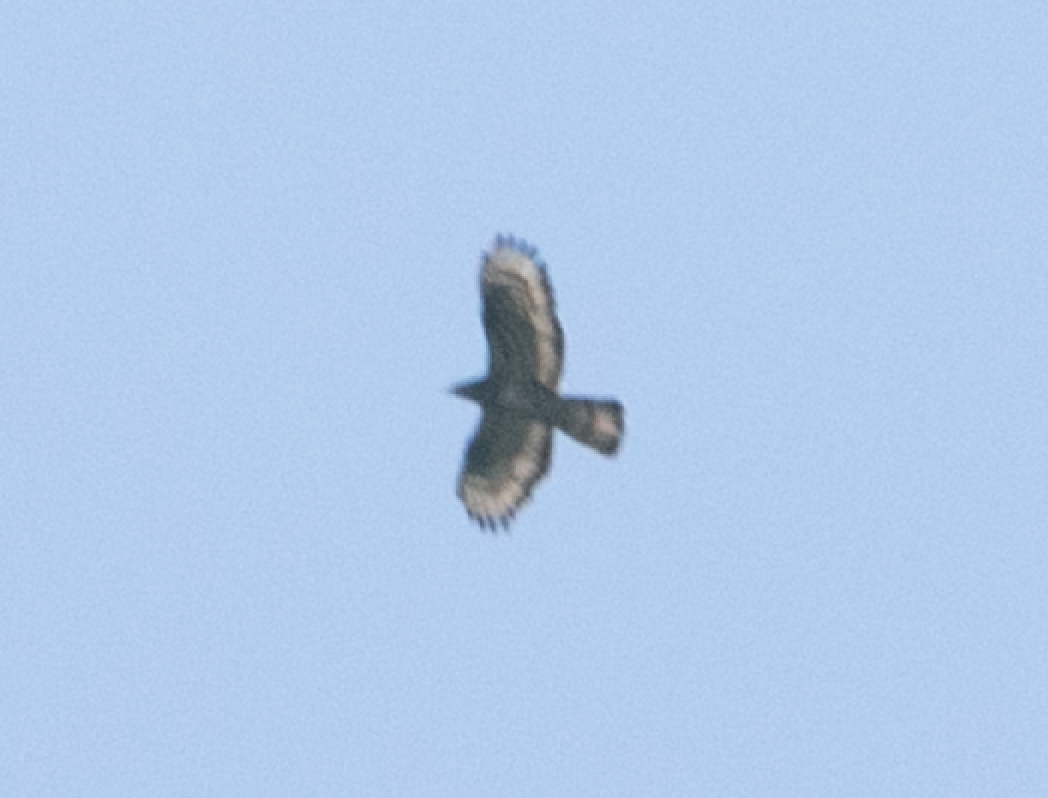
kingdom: Animalia
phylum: Chordata
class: Aves
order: Accipitriformes
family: Accipitridae
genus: Pernis
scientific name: Pernis apivorus
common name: European honey buzzard
